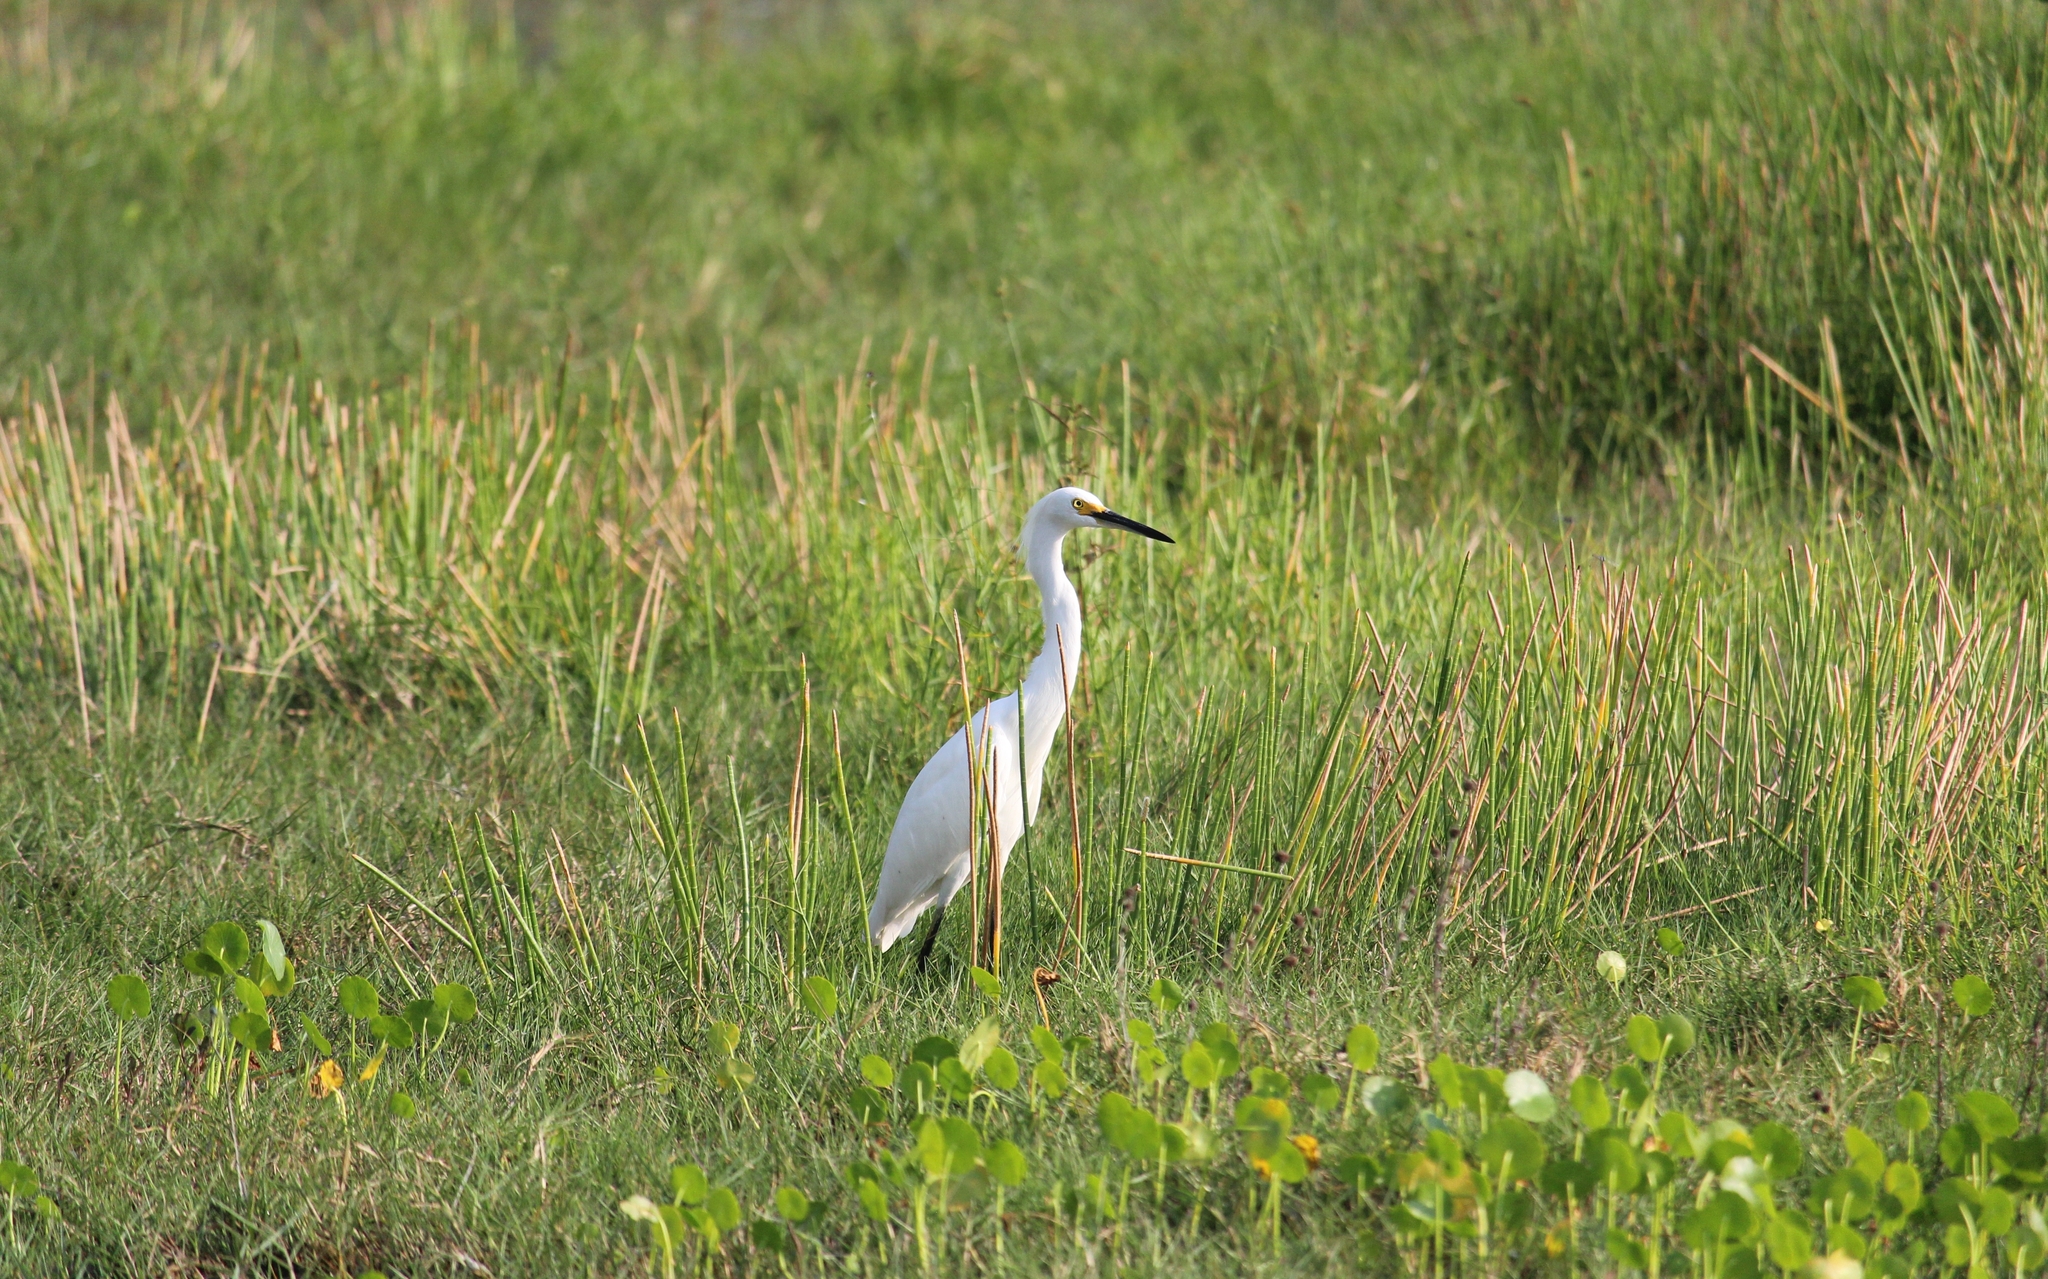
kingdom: Animalia
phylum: Chordata
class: Aves
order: Pelecaniformes
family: Ardeidae
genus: Egretta
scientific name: Egretta thula
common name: Snowy egret
